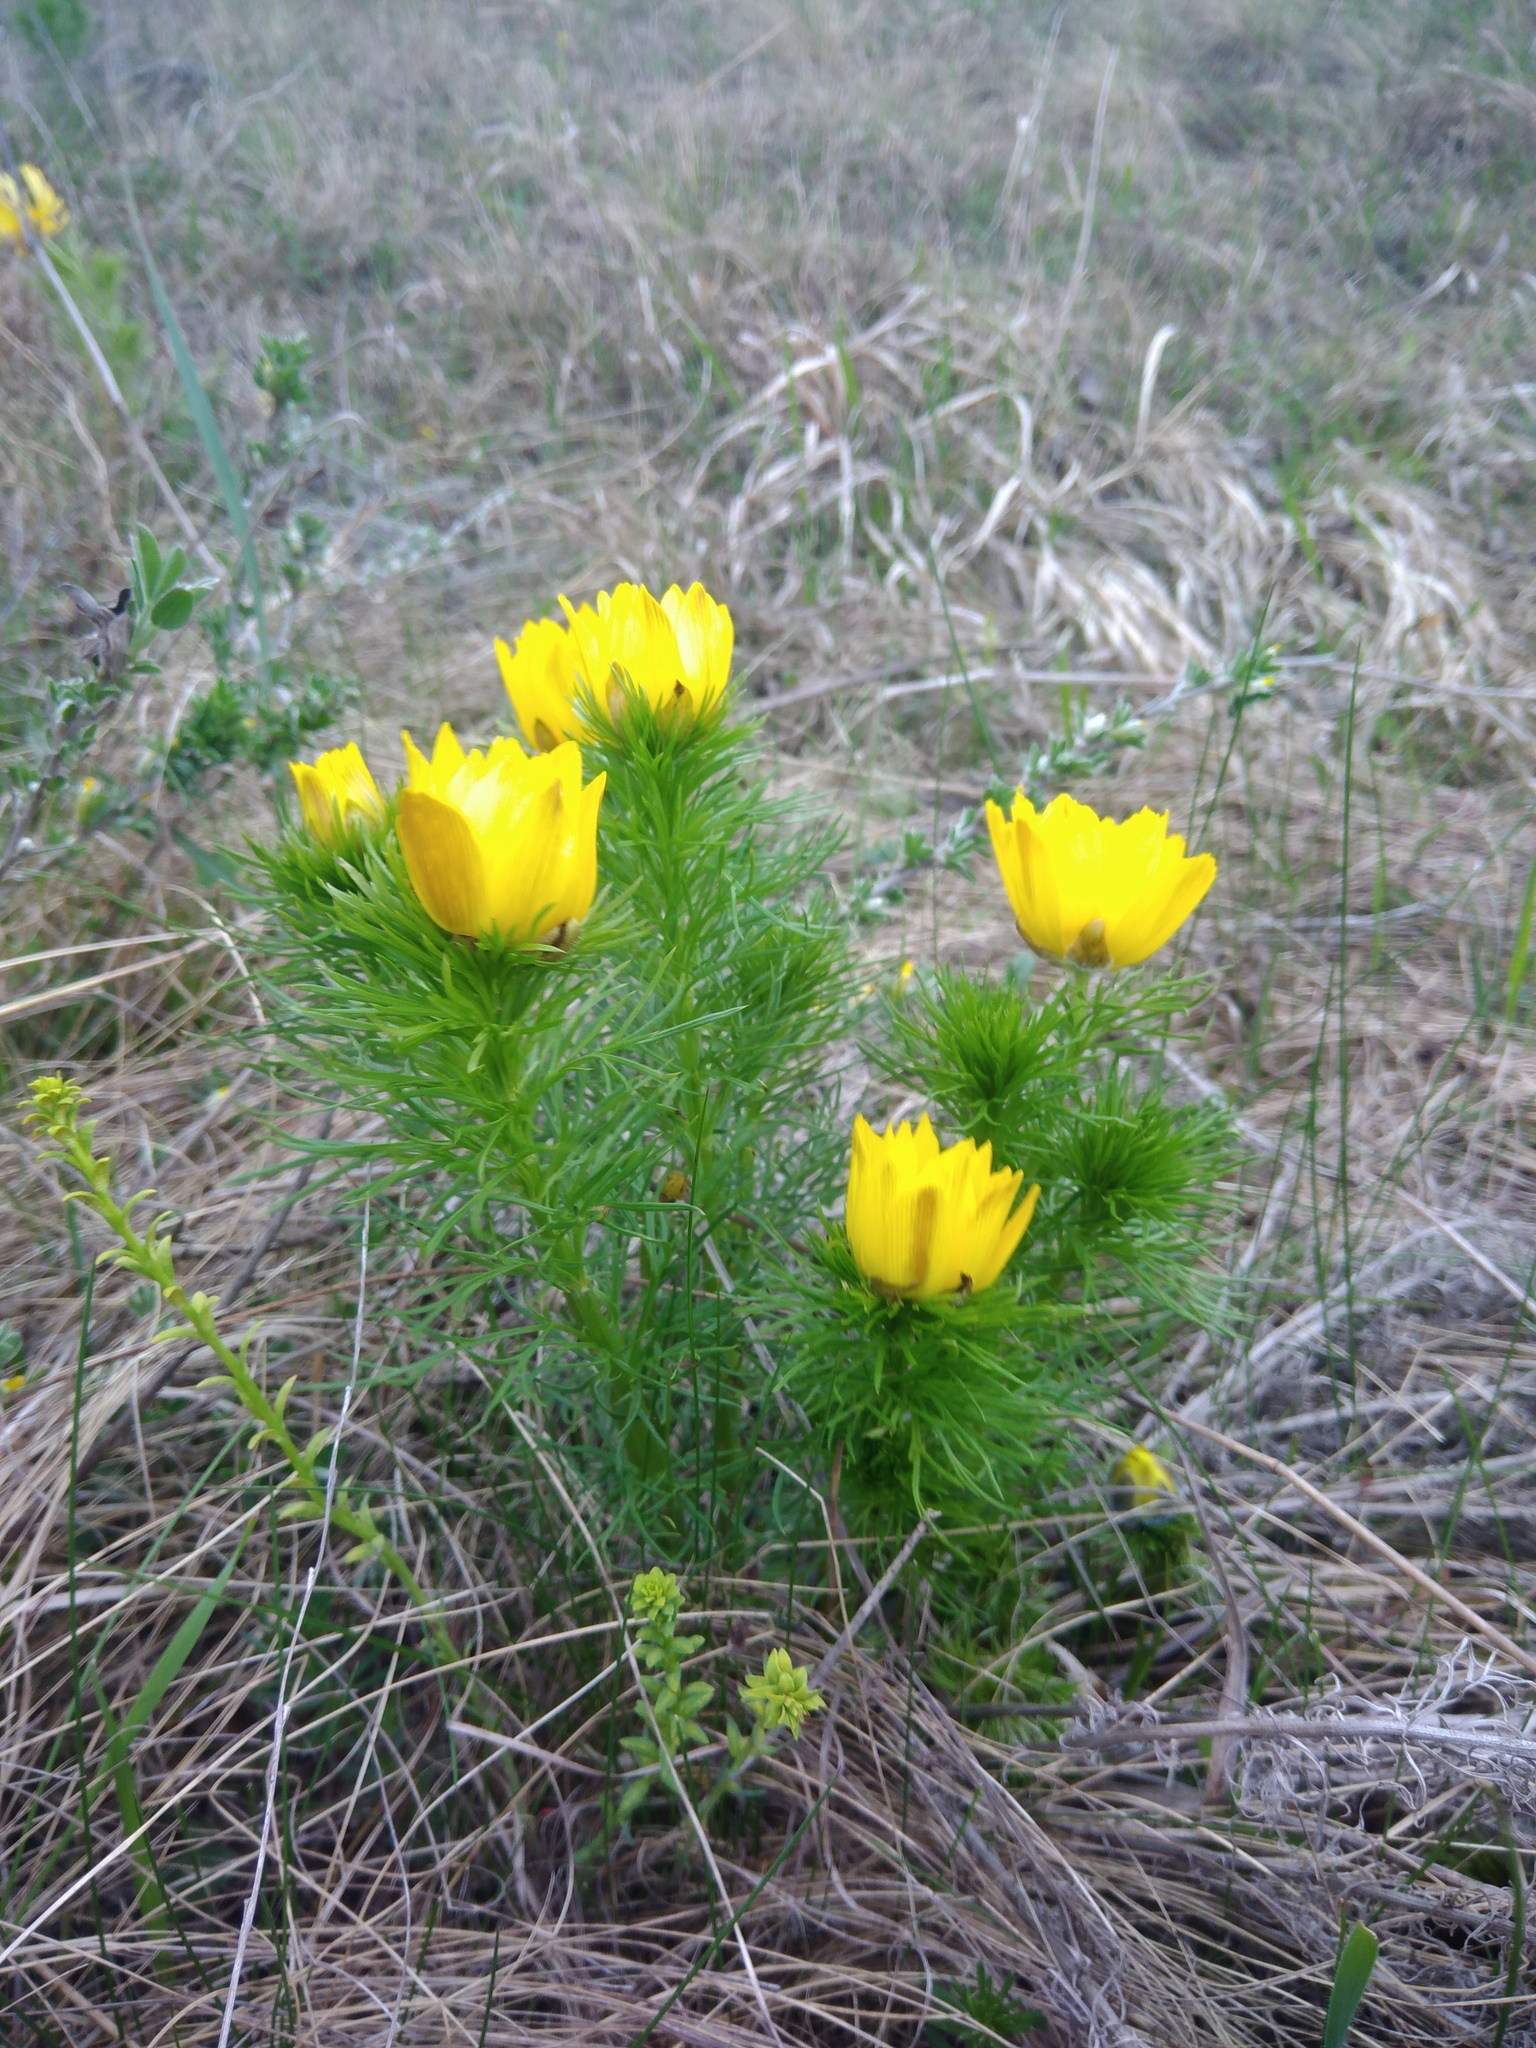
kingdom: Plantae
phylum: Tracheophyta
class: Magnoliopsida
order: Ranunculales
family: Ranunculaceae
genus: Adonis
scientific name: Adonis vernalis
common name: Yellow pheasants-eye
